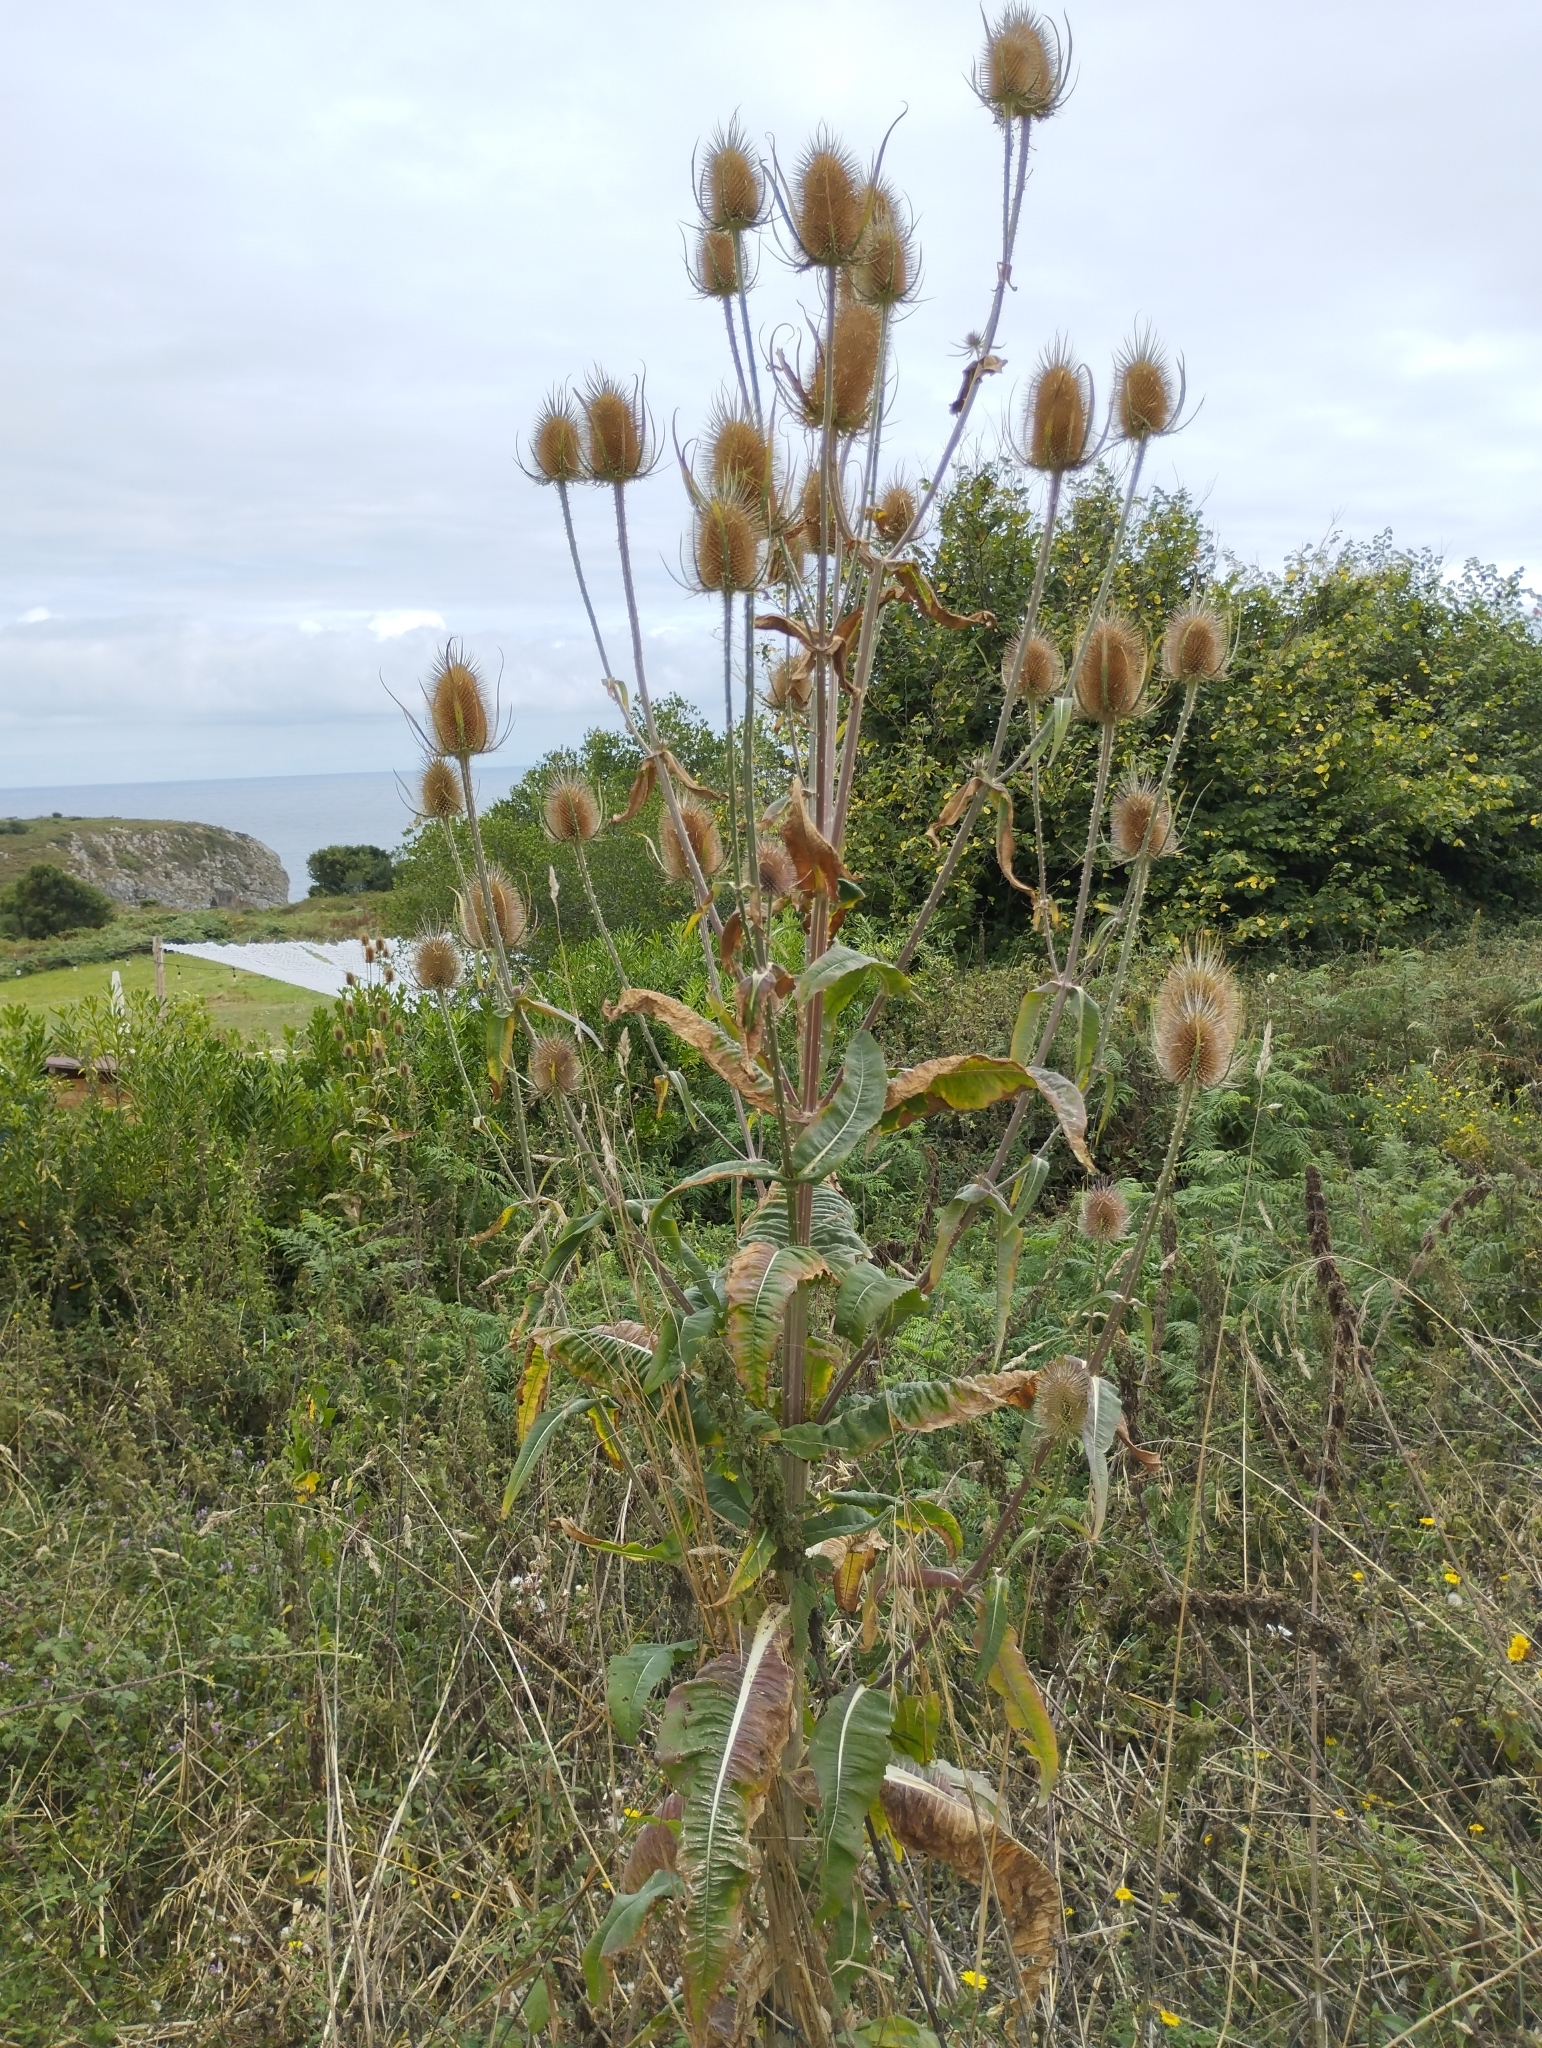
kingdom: Plantae
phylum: Tracheophyta
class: Magnoliopsida
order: Dipsacales
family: Caprifoliaceae
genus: Dipsacus
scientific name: Dipsacus fullonum
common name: Teasel
